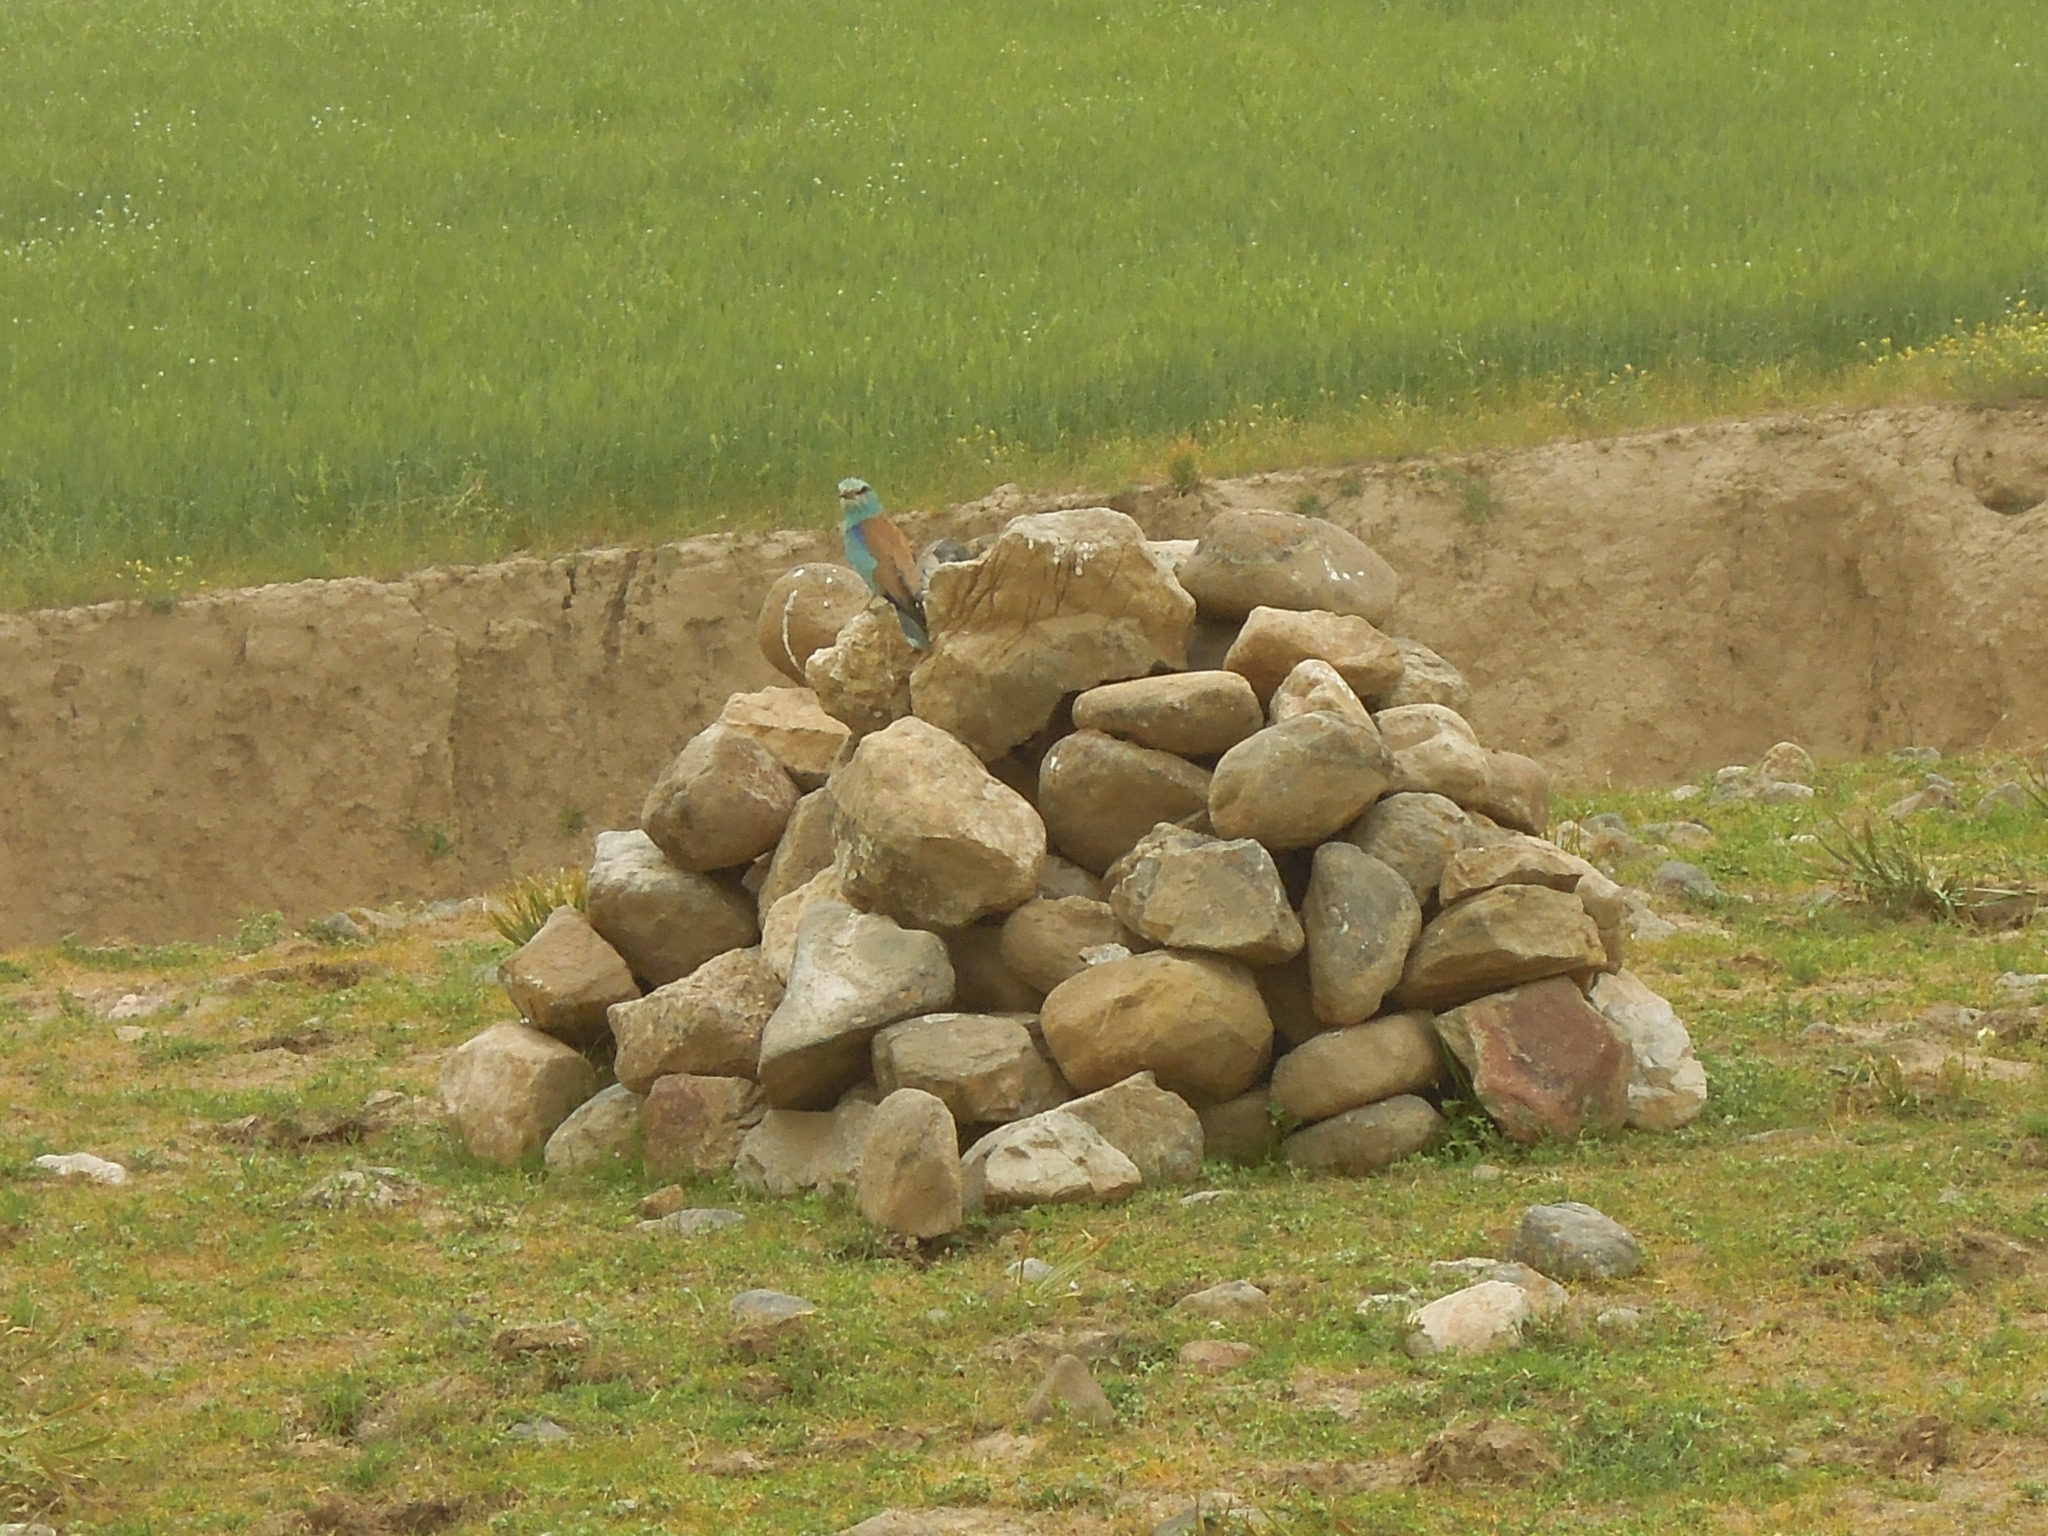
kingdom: Animalia
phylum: Chordata
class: Aves
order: Coraciiformes
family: Coraciidae
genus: Coracias
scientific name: Coracias garrulus
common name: European roller
